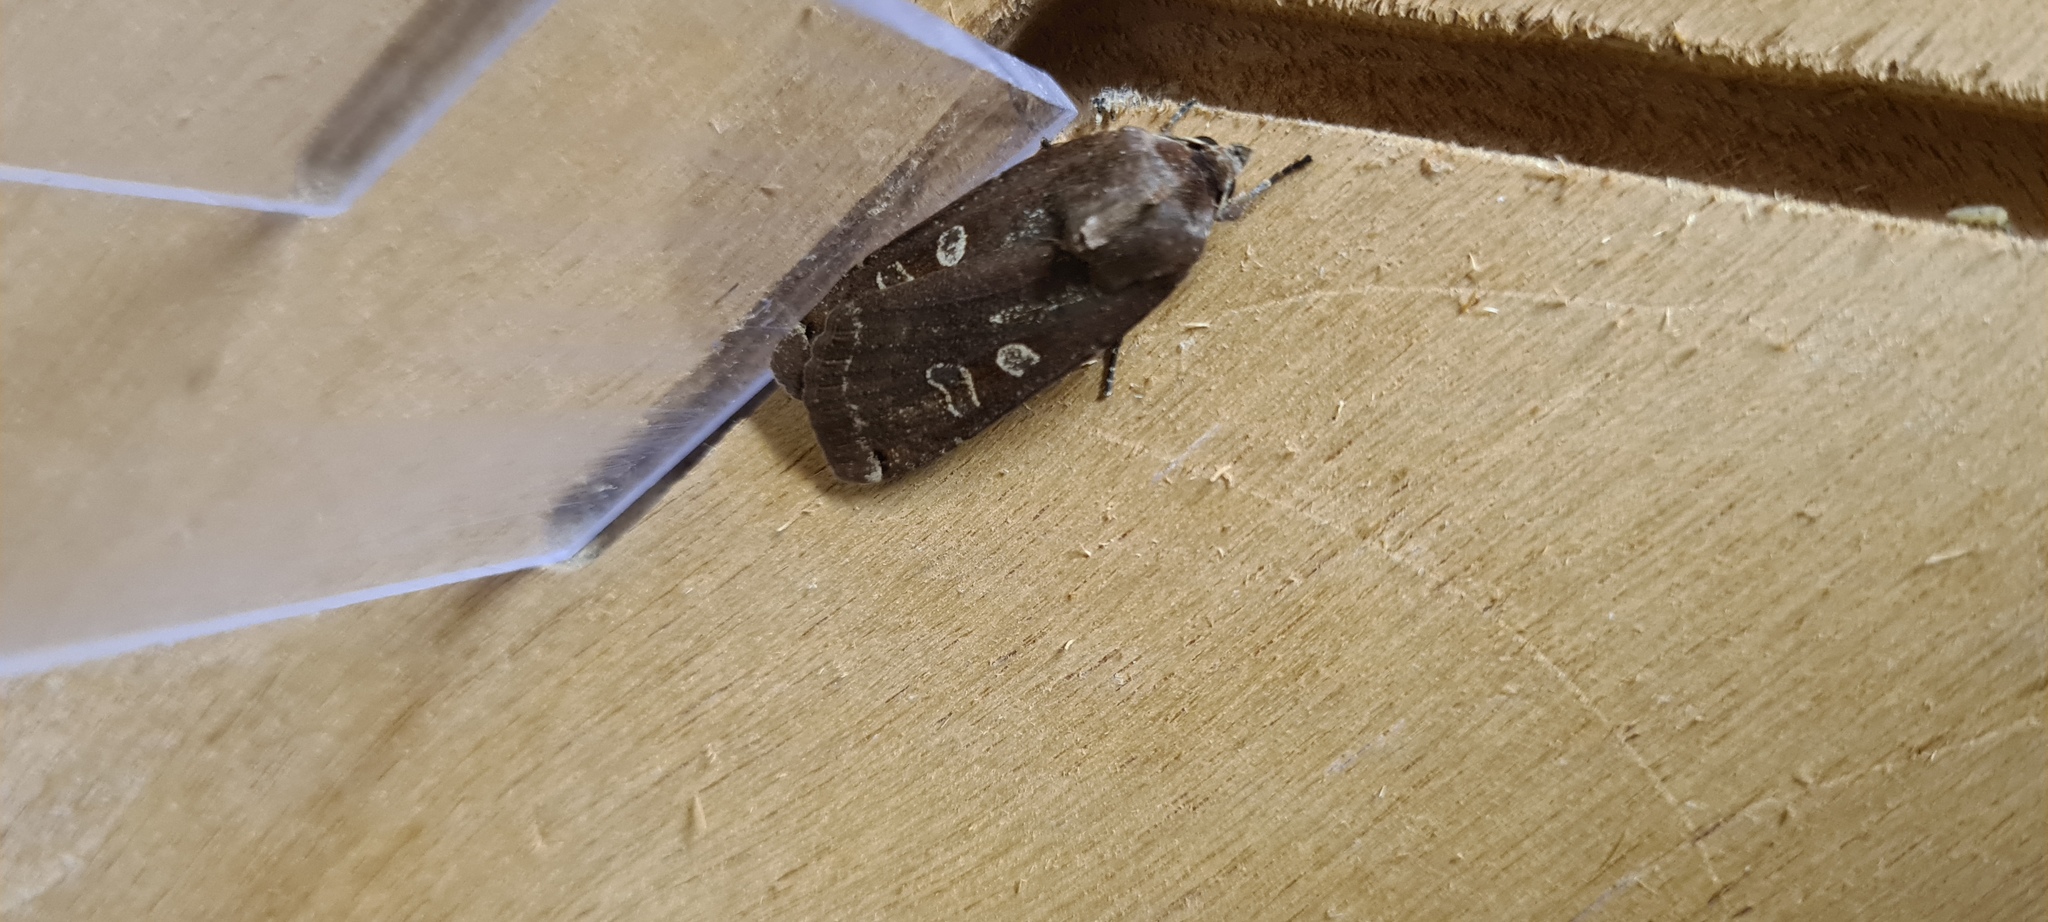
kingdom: Animalia
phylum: Arthropoda
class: Insecta
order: Lepidoptera
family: Noctuidae
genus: Noctua
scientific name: Noctua pronuba
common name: Large yellow underwing
